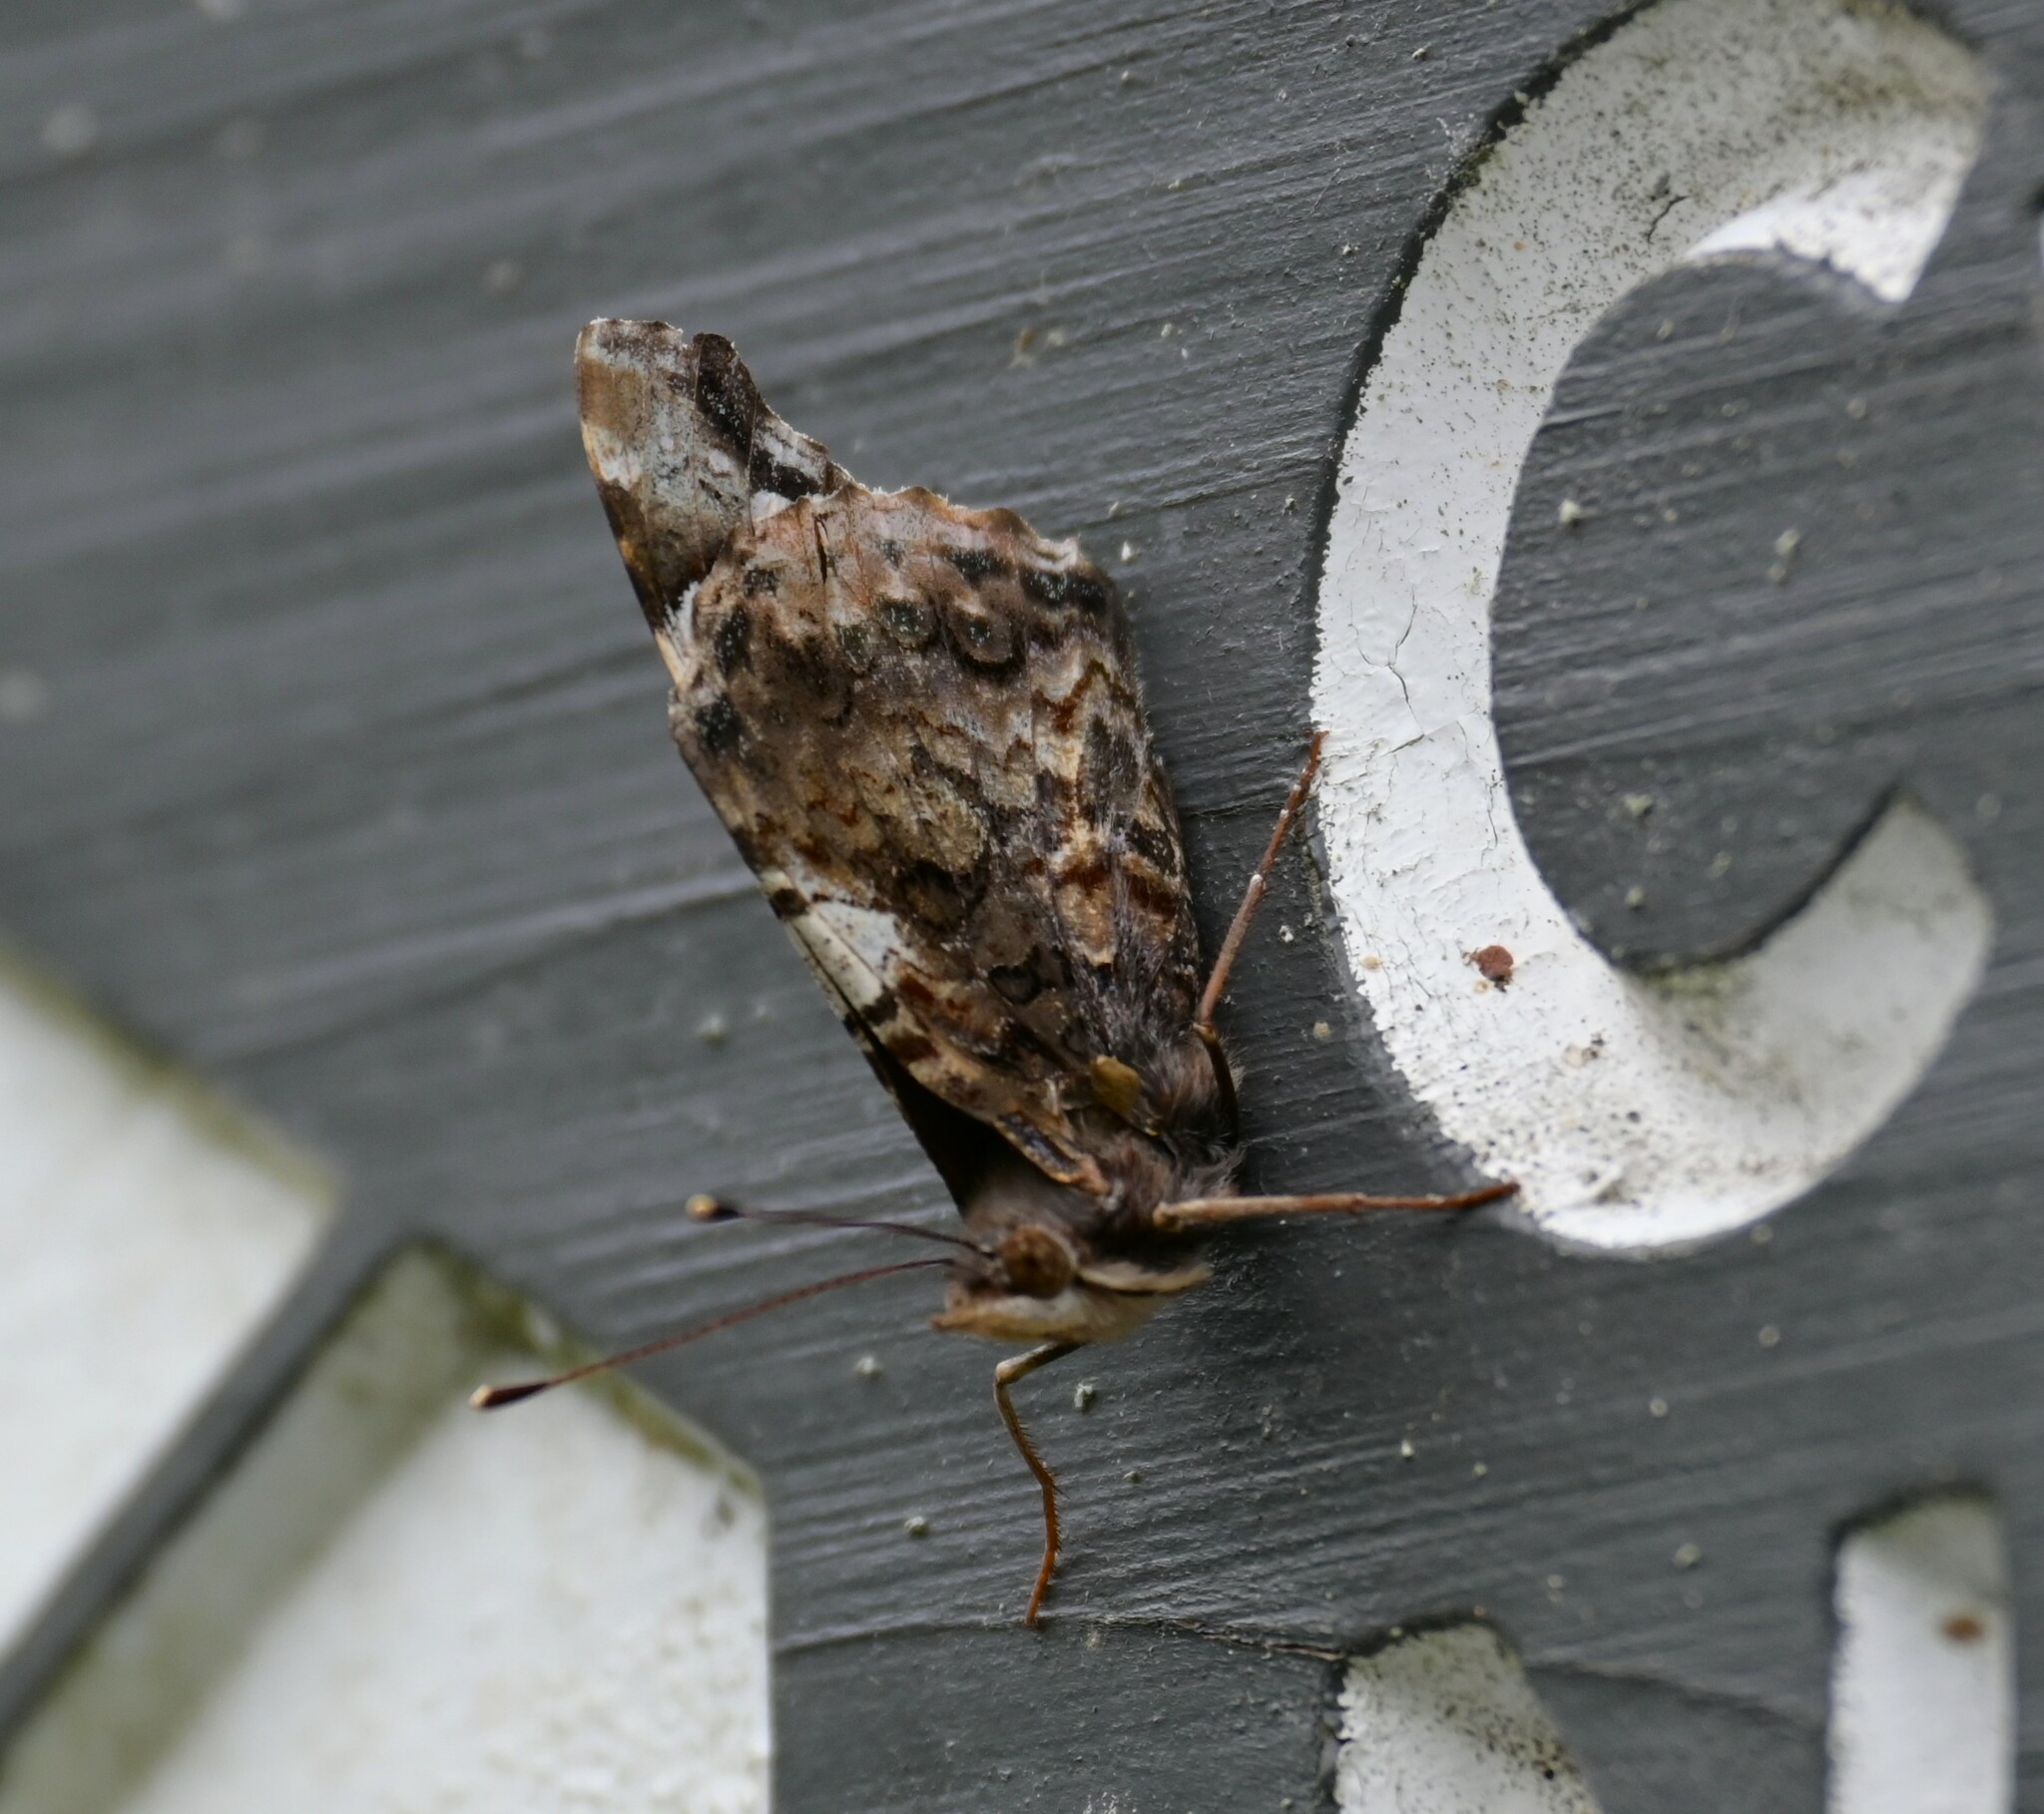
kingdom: Animalia
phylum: Arthropoda
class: Insecta
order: Lepidoptera
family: Nymphalidae
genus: Vanessa
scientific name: Vanessa atalanta
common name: Red admiral
